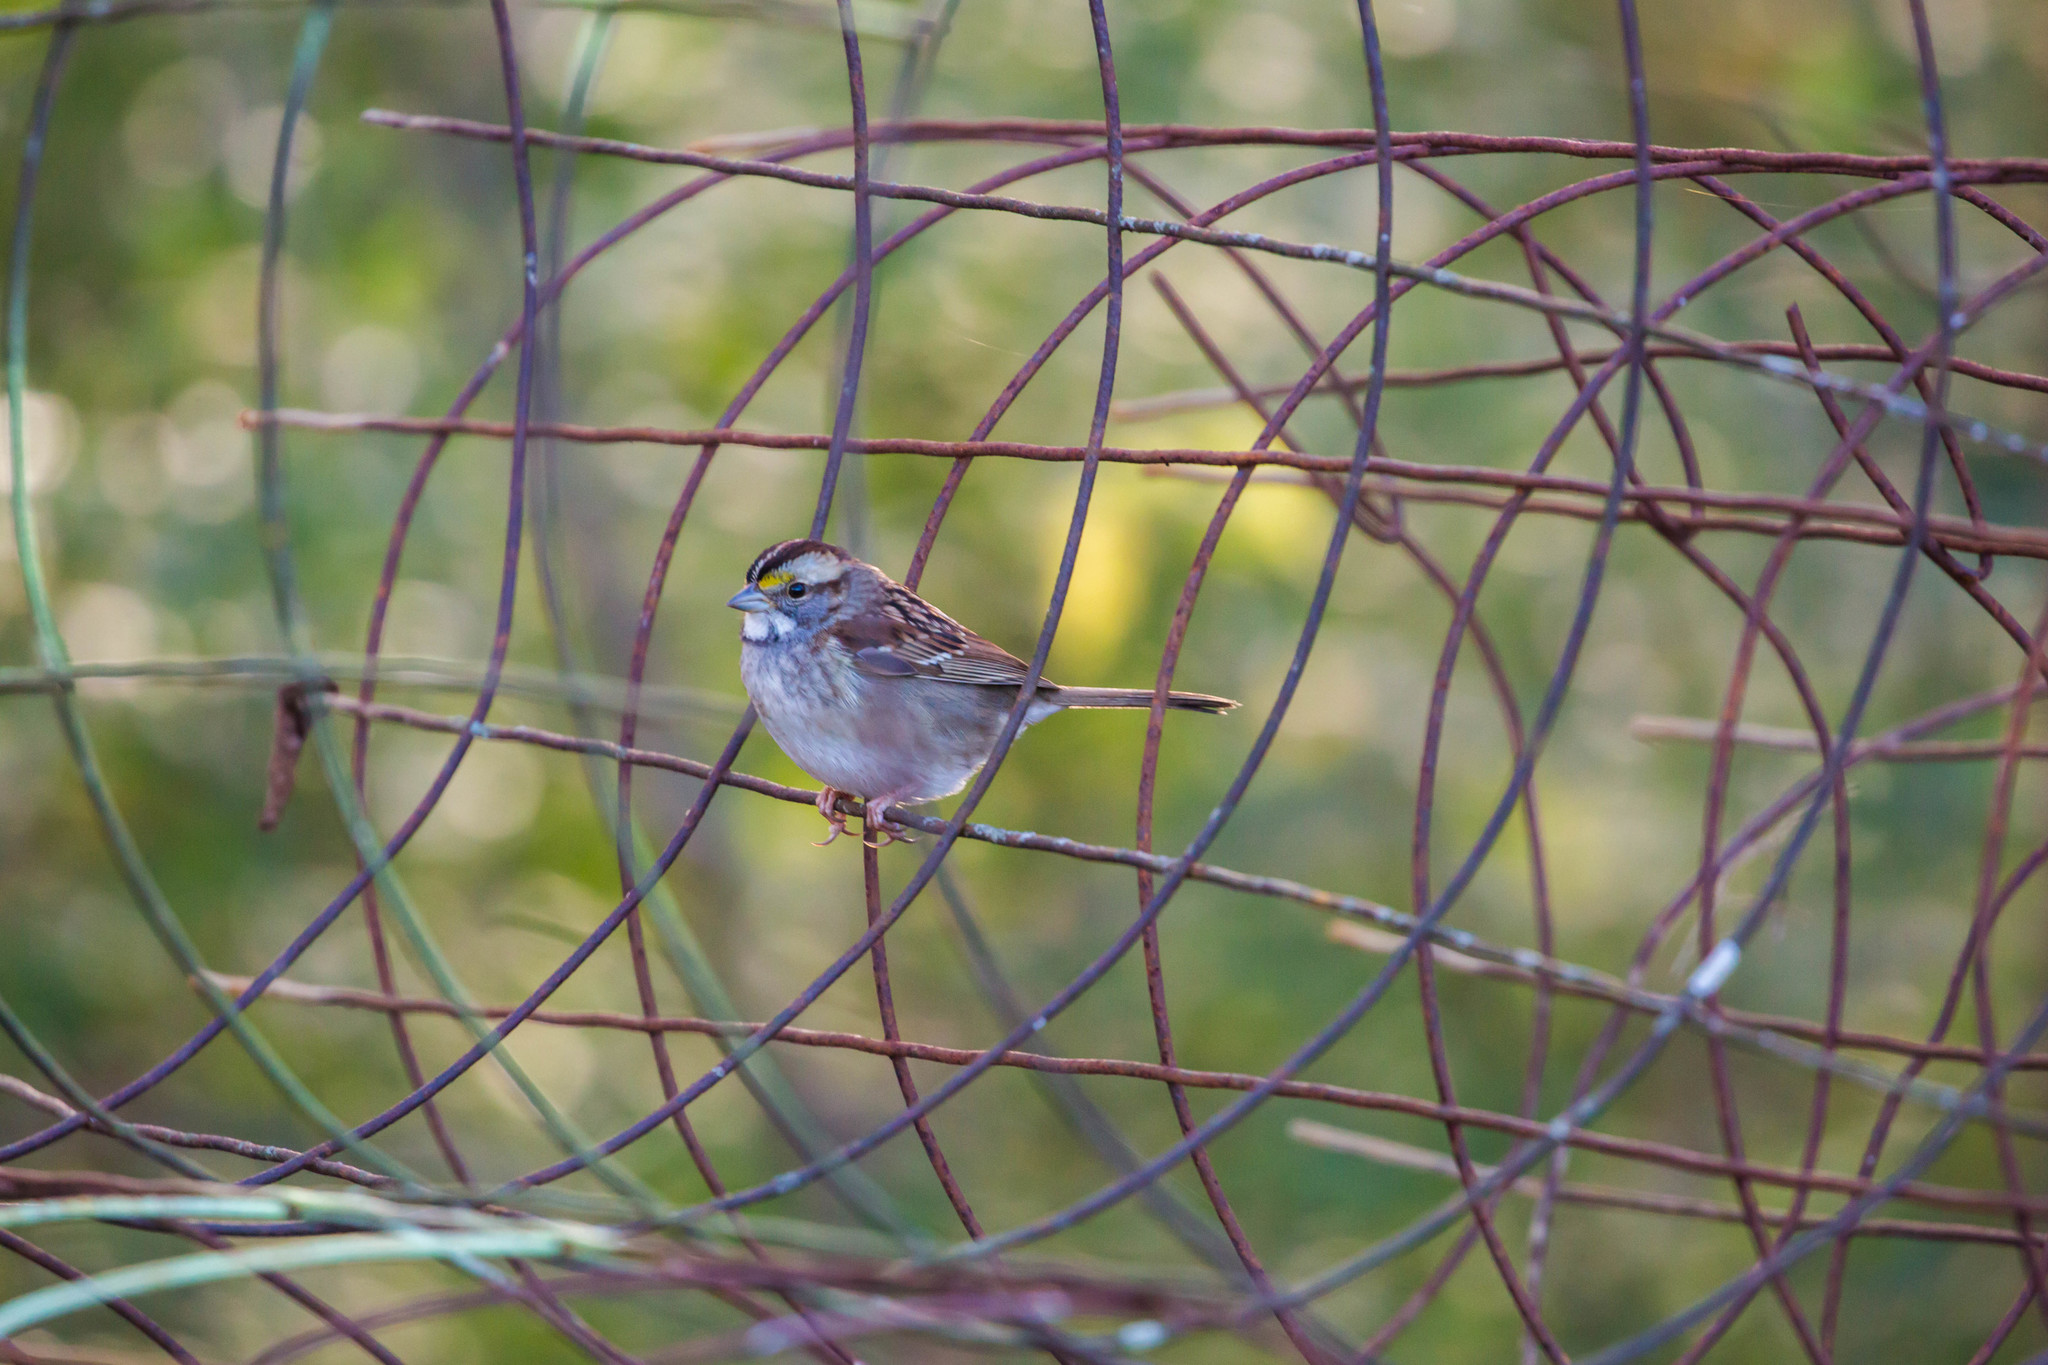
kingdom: Animalia
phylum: Chordata
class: Aves
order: Passeriformes
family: Passerellidae
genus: Zonotrichia
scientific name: Zonotrichia albicollis
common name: White-throated sparrow
